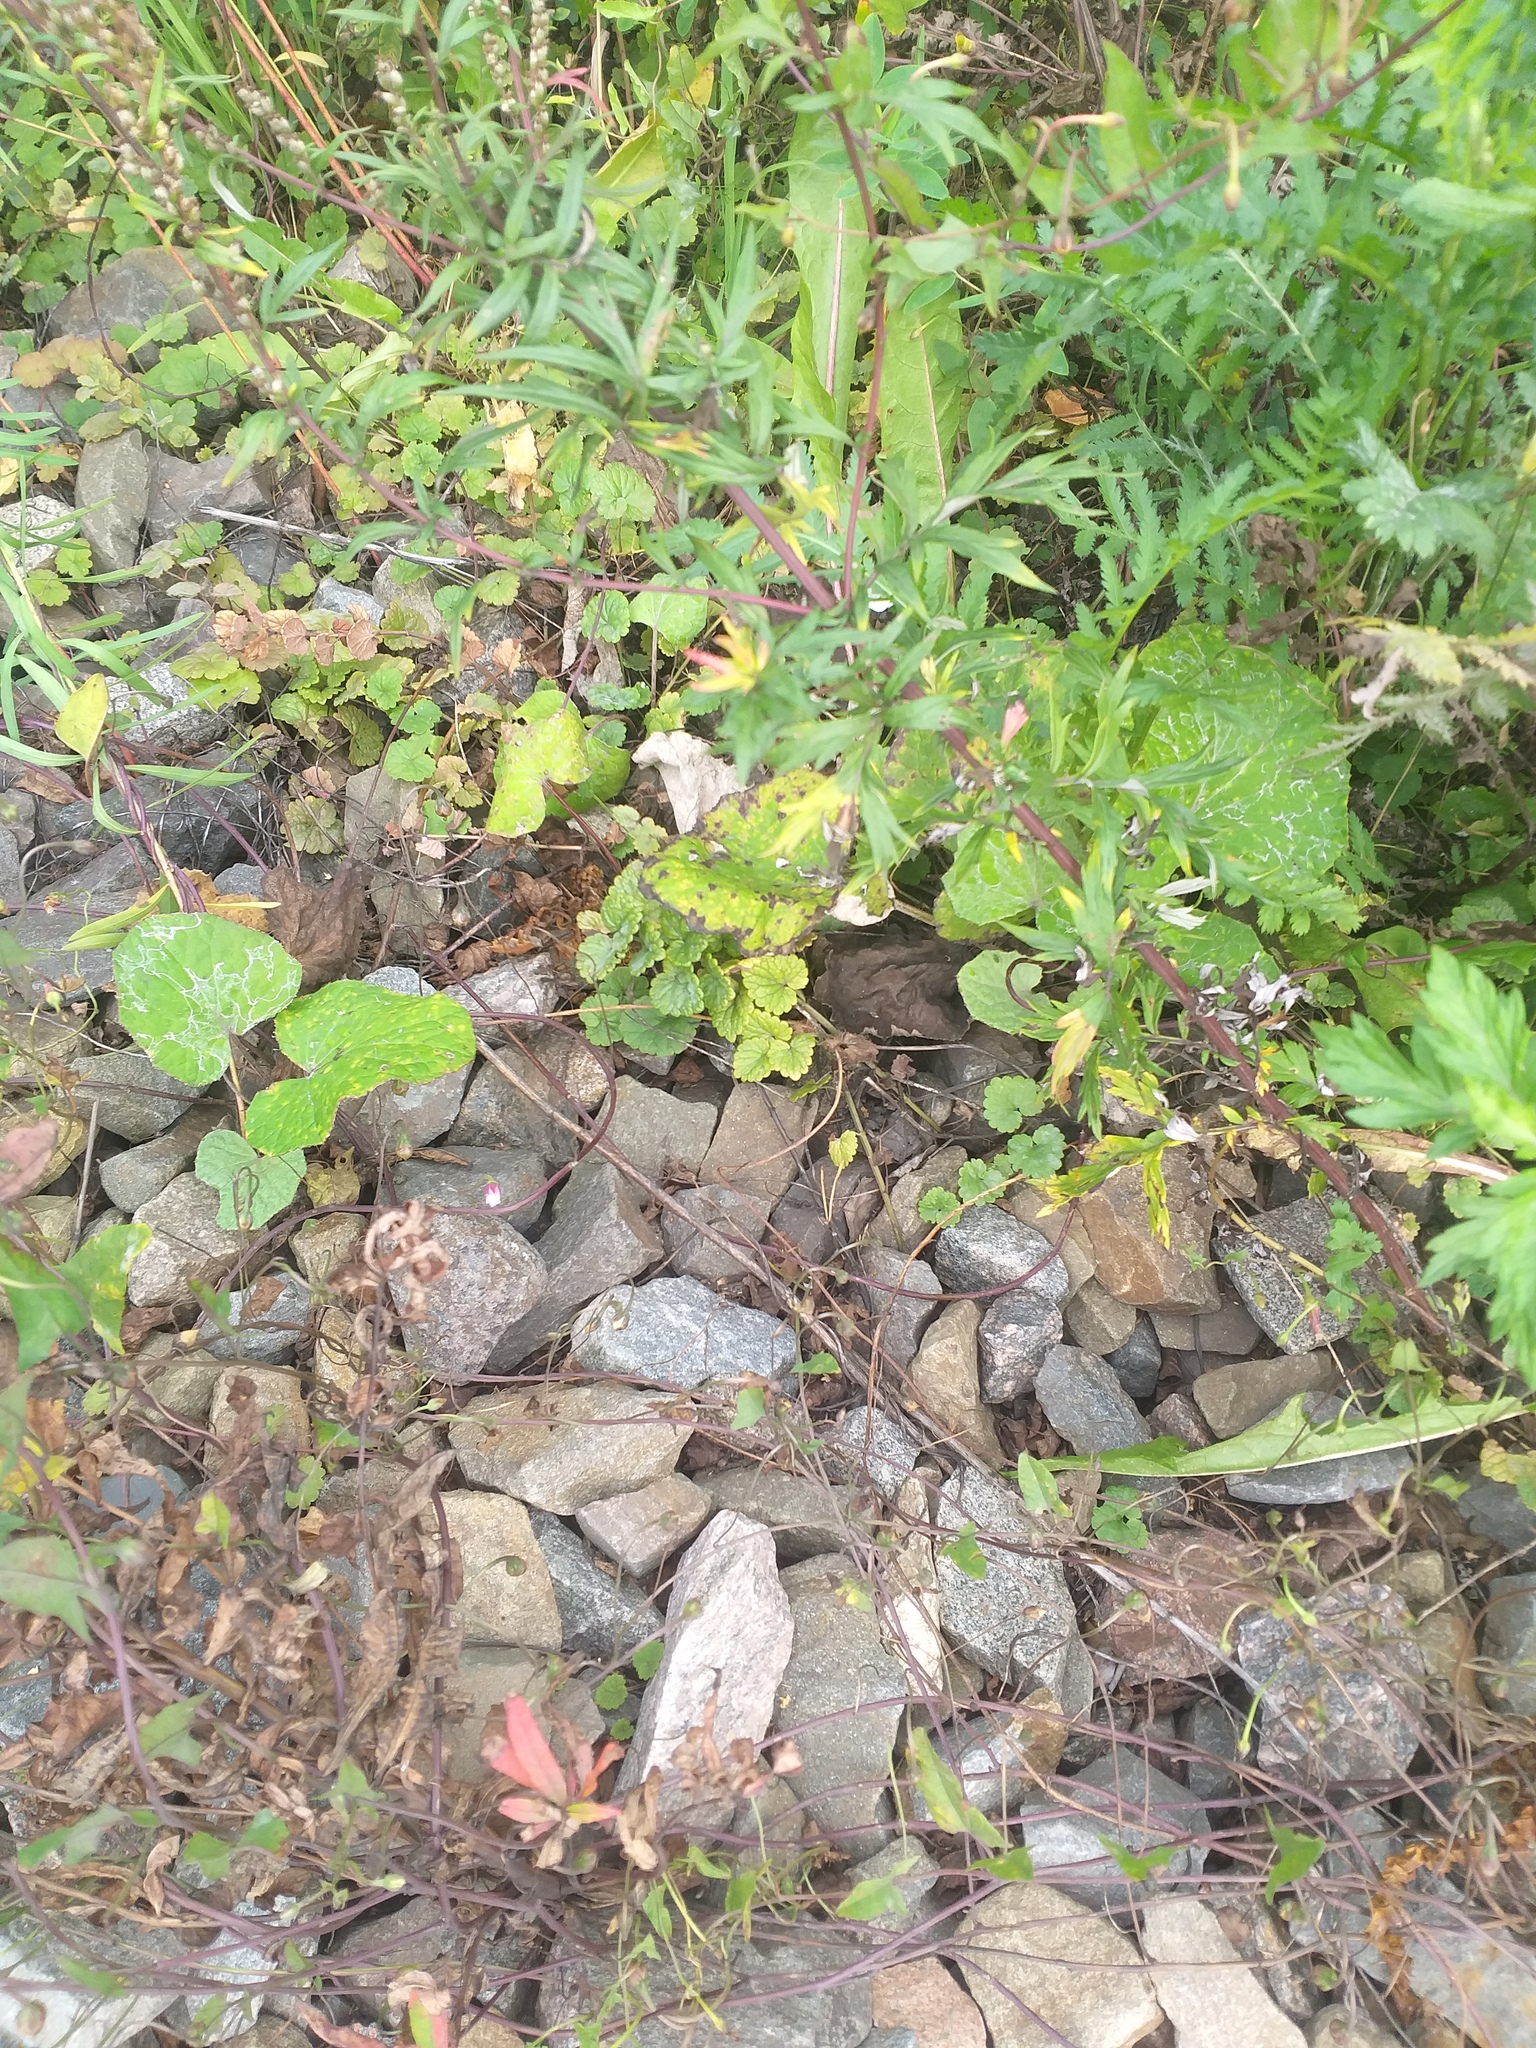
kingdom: Plantae
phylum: Tracheophyta
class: Magnoliopsida
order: Lamiales
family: Lamiaceae
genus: Glechoma
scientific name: Glechoma hederacea
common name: Ground ivy
